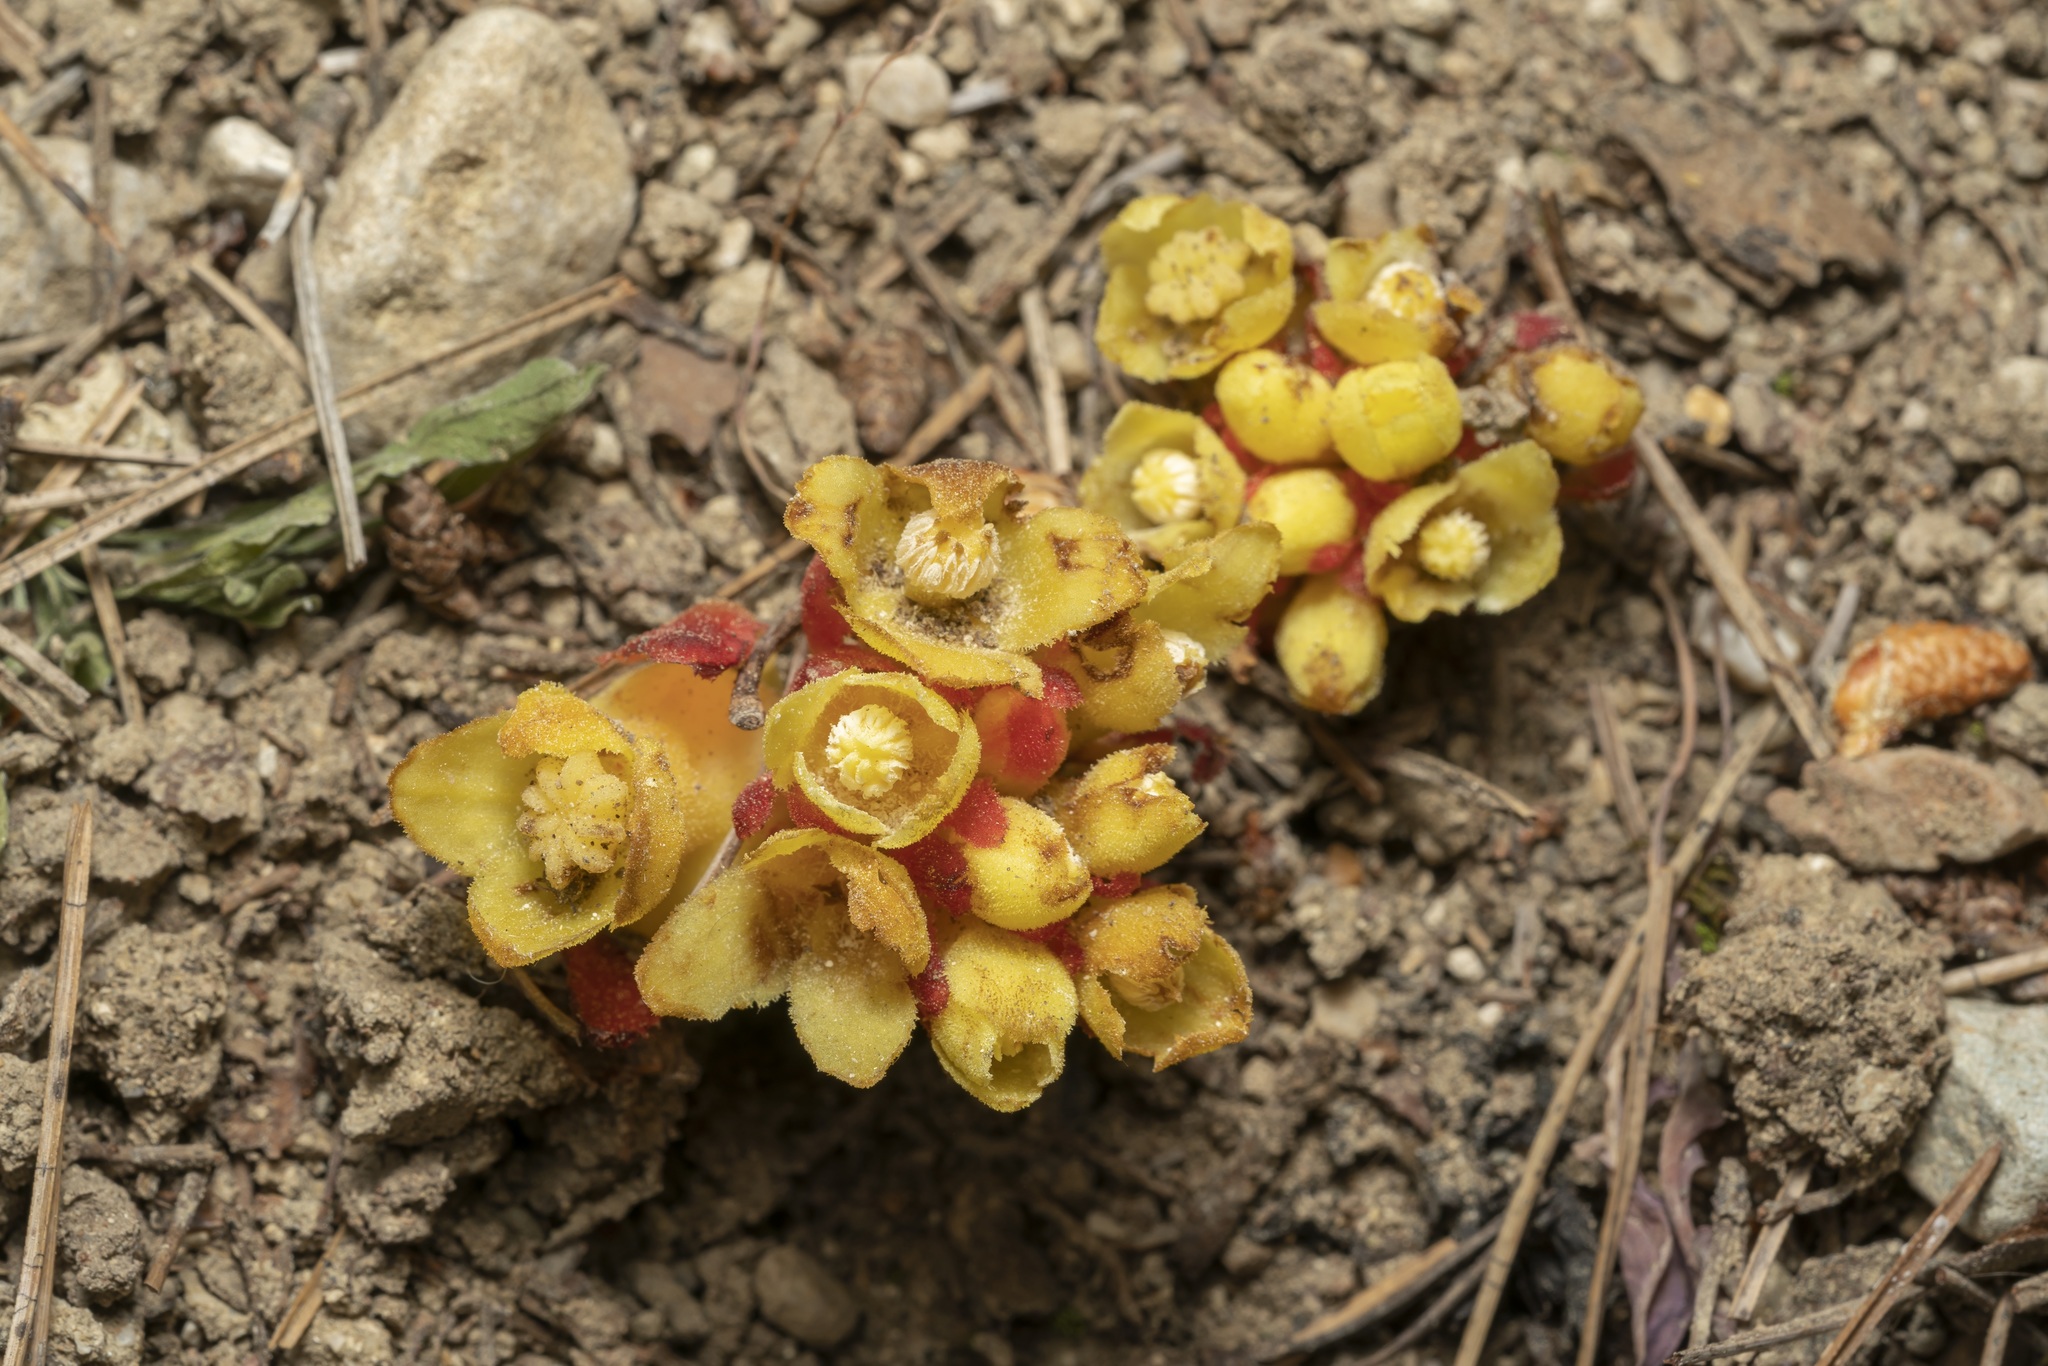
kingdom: Plantae
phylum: Tracheophyta
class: Magnoliopsida
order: Malvales
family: Cytinaceae
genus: Cytinus
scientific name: Cytinus hypocistis
